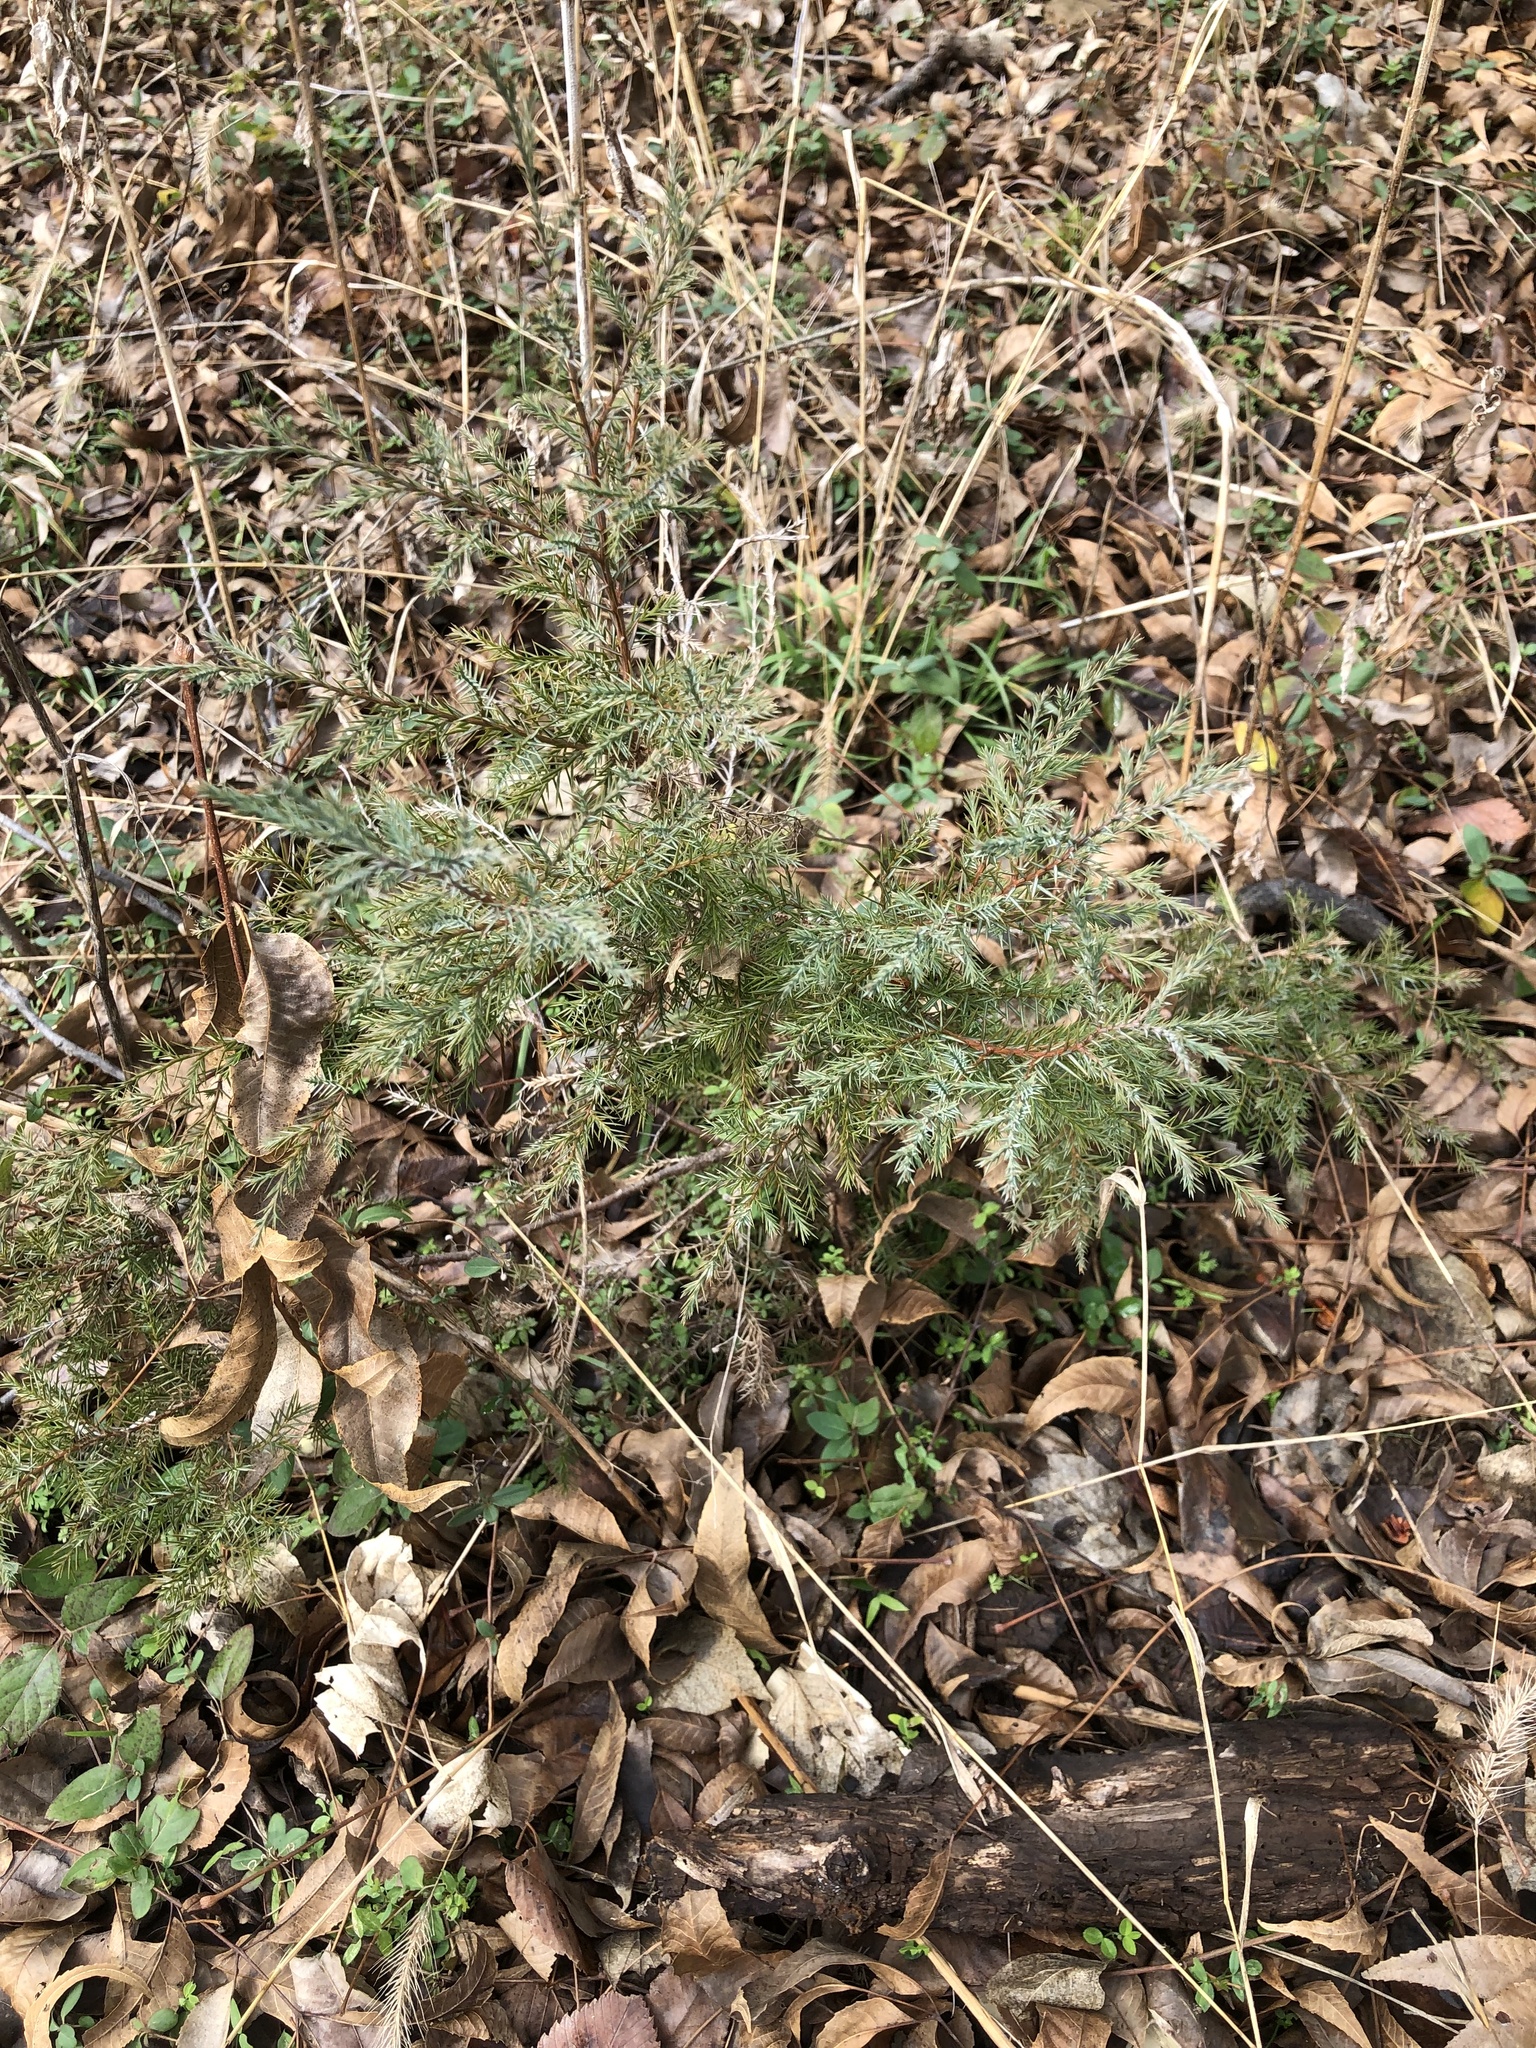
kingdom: Plantae
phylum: Tracheophyta
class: Pinopsida
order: Pinales
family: Cupressaceae
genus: Juniperus
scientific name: Juniperus virginiana
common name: Red juniper
